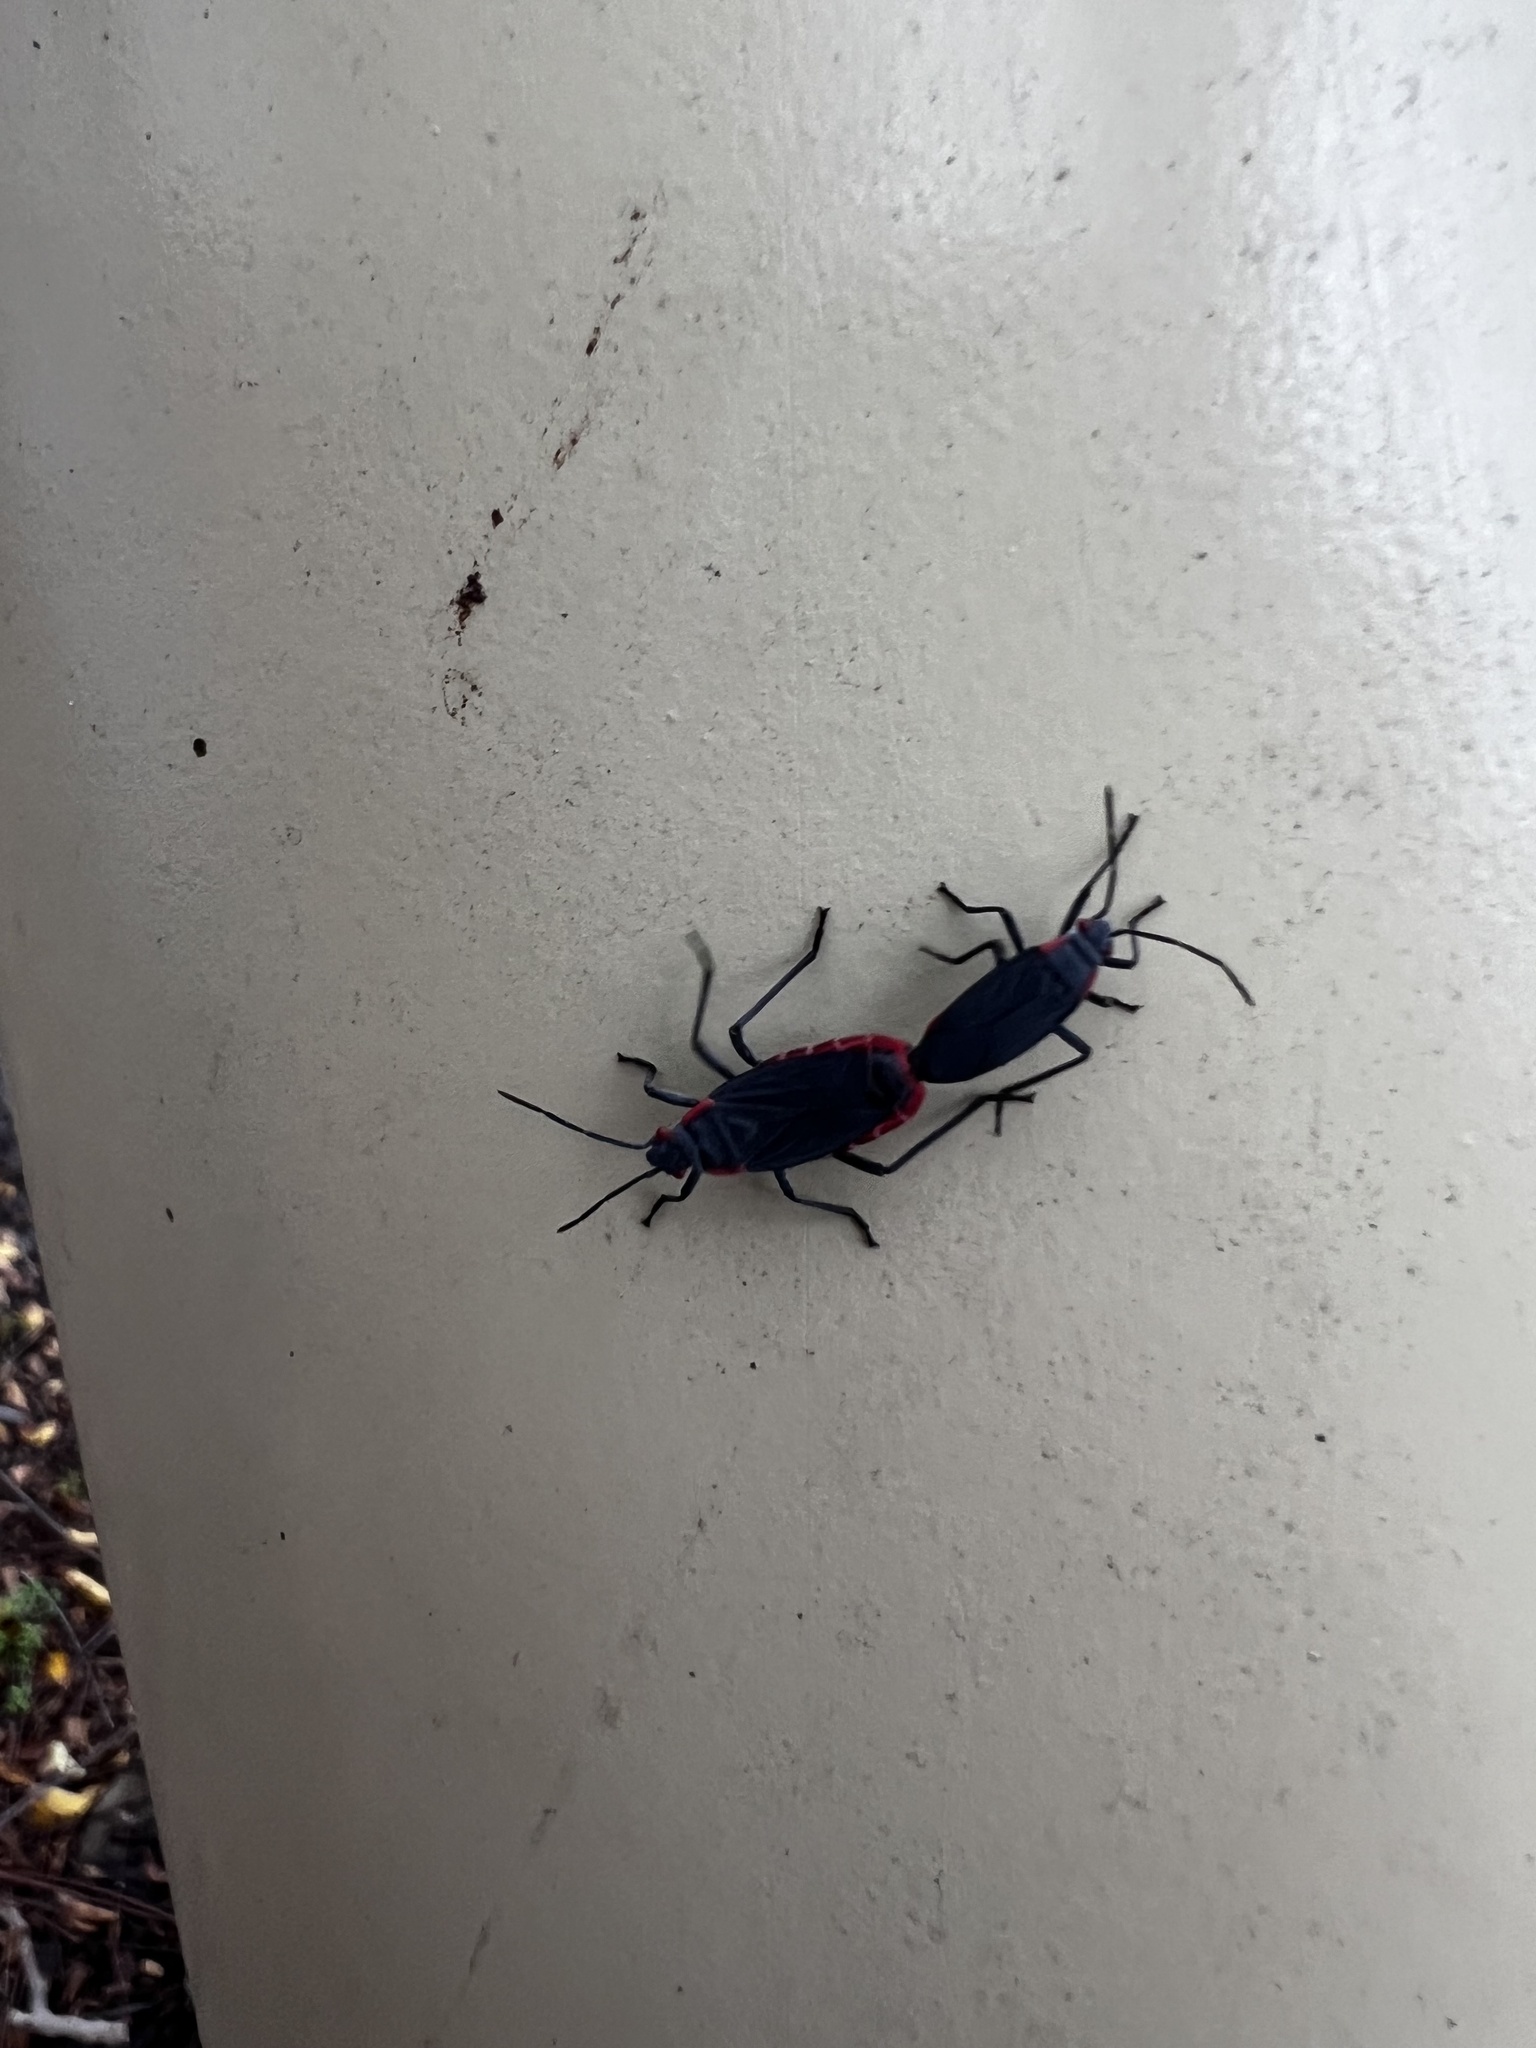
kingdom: Animalia
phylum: Arthropoda
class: Insecta
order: Hemiptera
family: Rhopalidae
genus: Jadera
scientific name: Jadera haematoloma
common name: Red-shouldered bug
